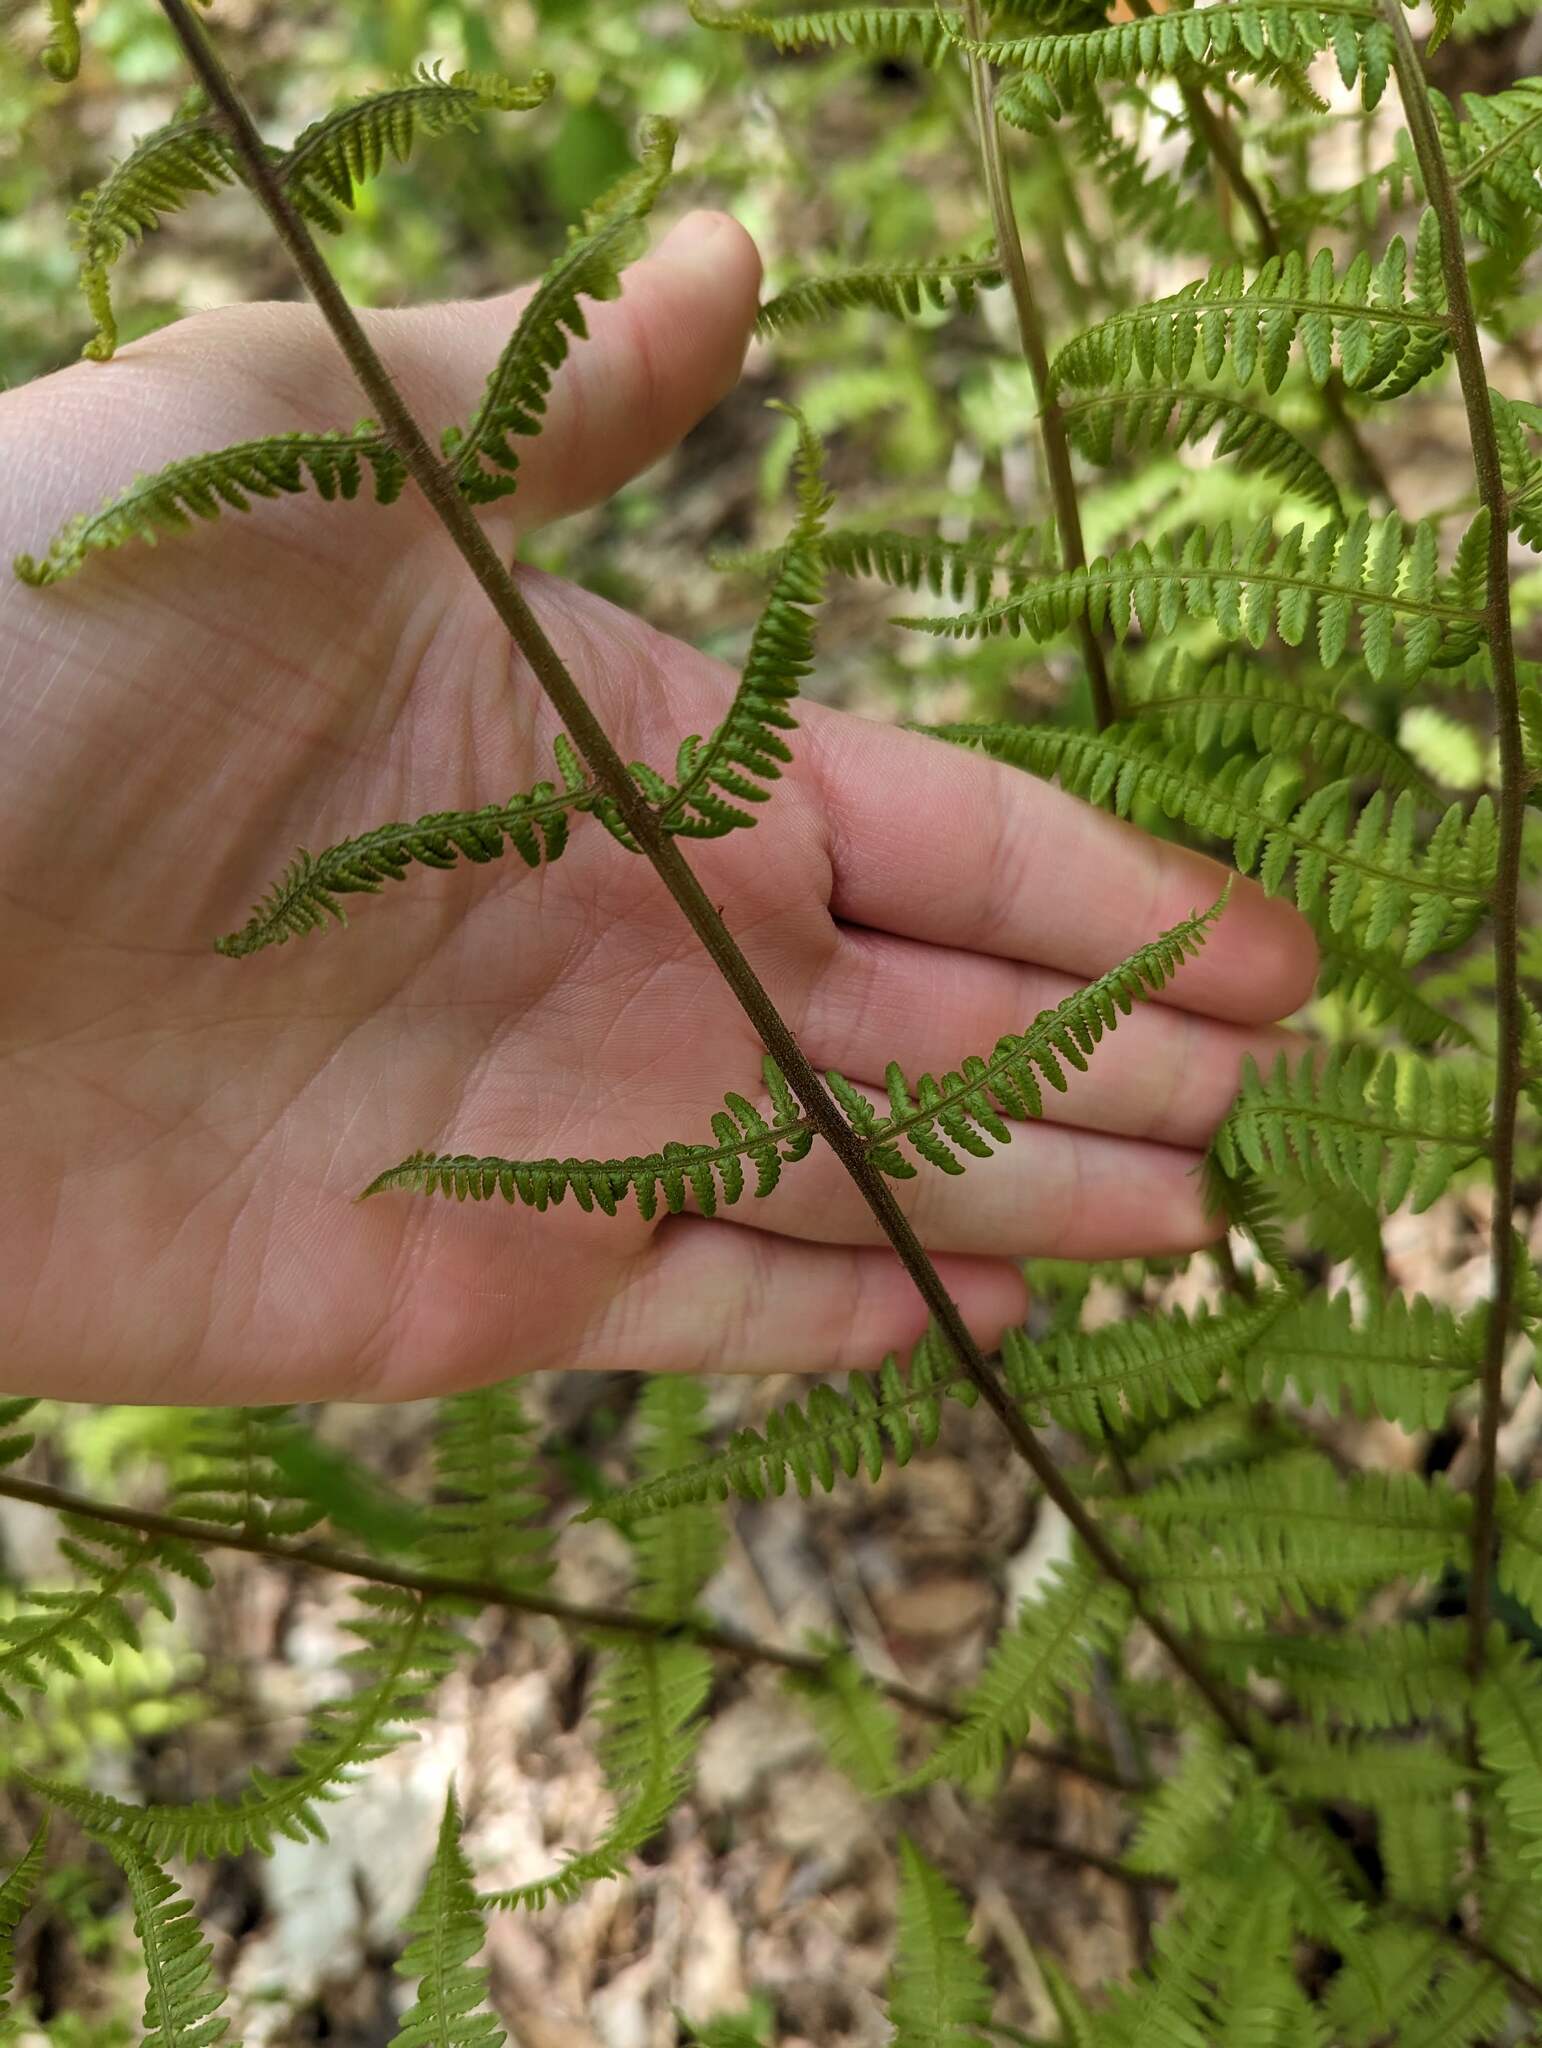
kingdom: Plantae
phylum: Tracheophyta
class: Polypodiopsida
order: Polypodiales
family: Athyriaceae
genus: Athyrium
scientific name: Athyrium angustum
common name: Northern lady fern
